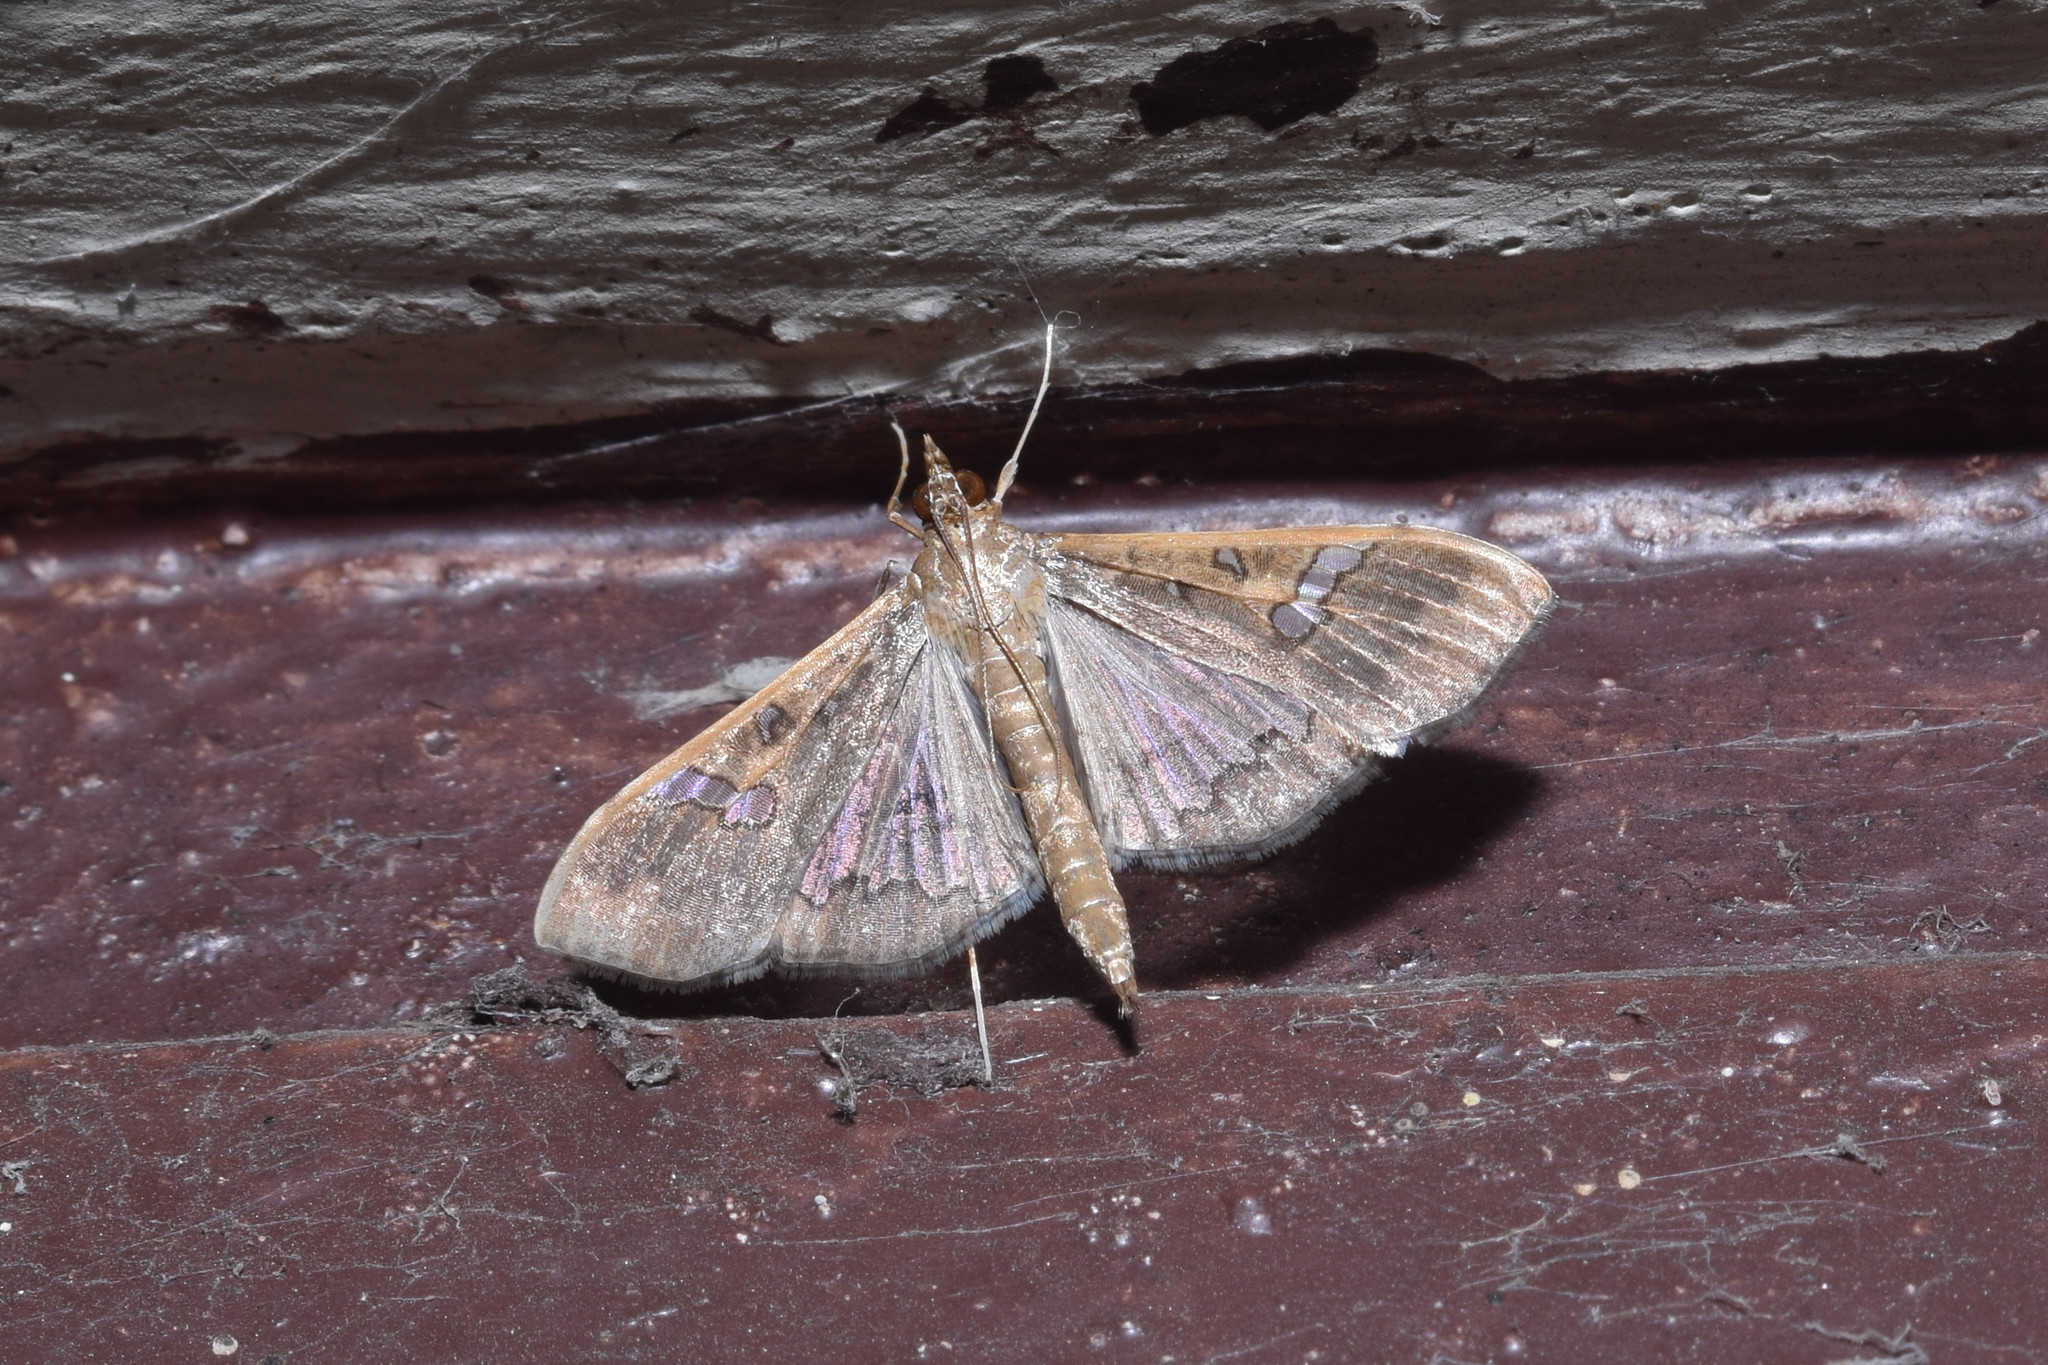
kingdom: Animalia
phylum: Arthropoda
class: Insecta
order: Lepidoptera
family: Crambidae
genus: Maruca
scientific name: Maruca vitrata
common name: Maruca pod borer
